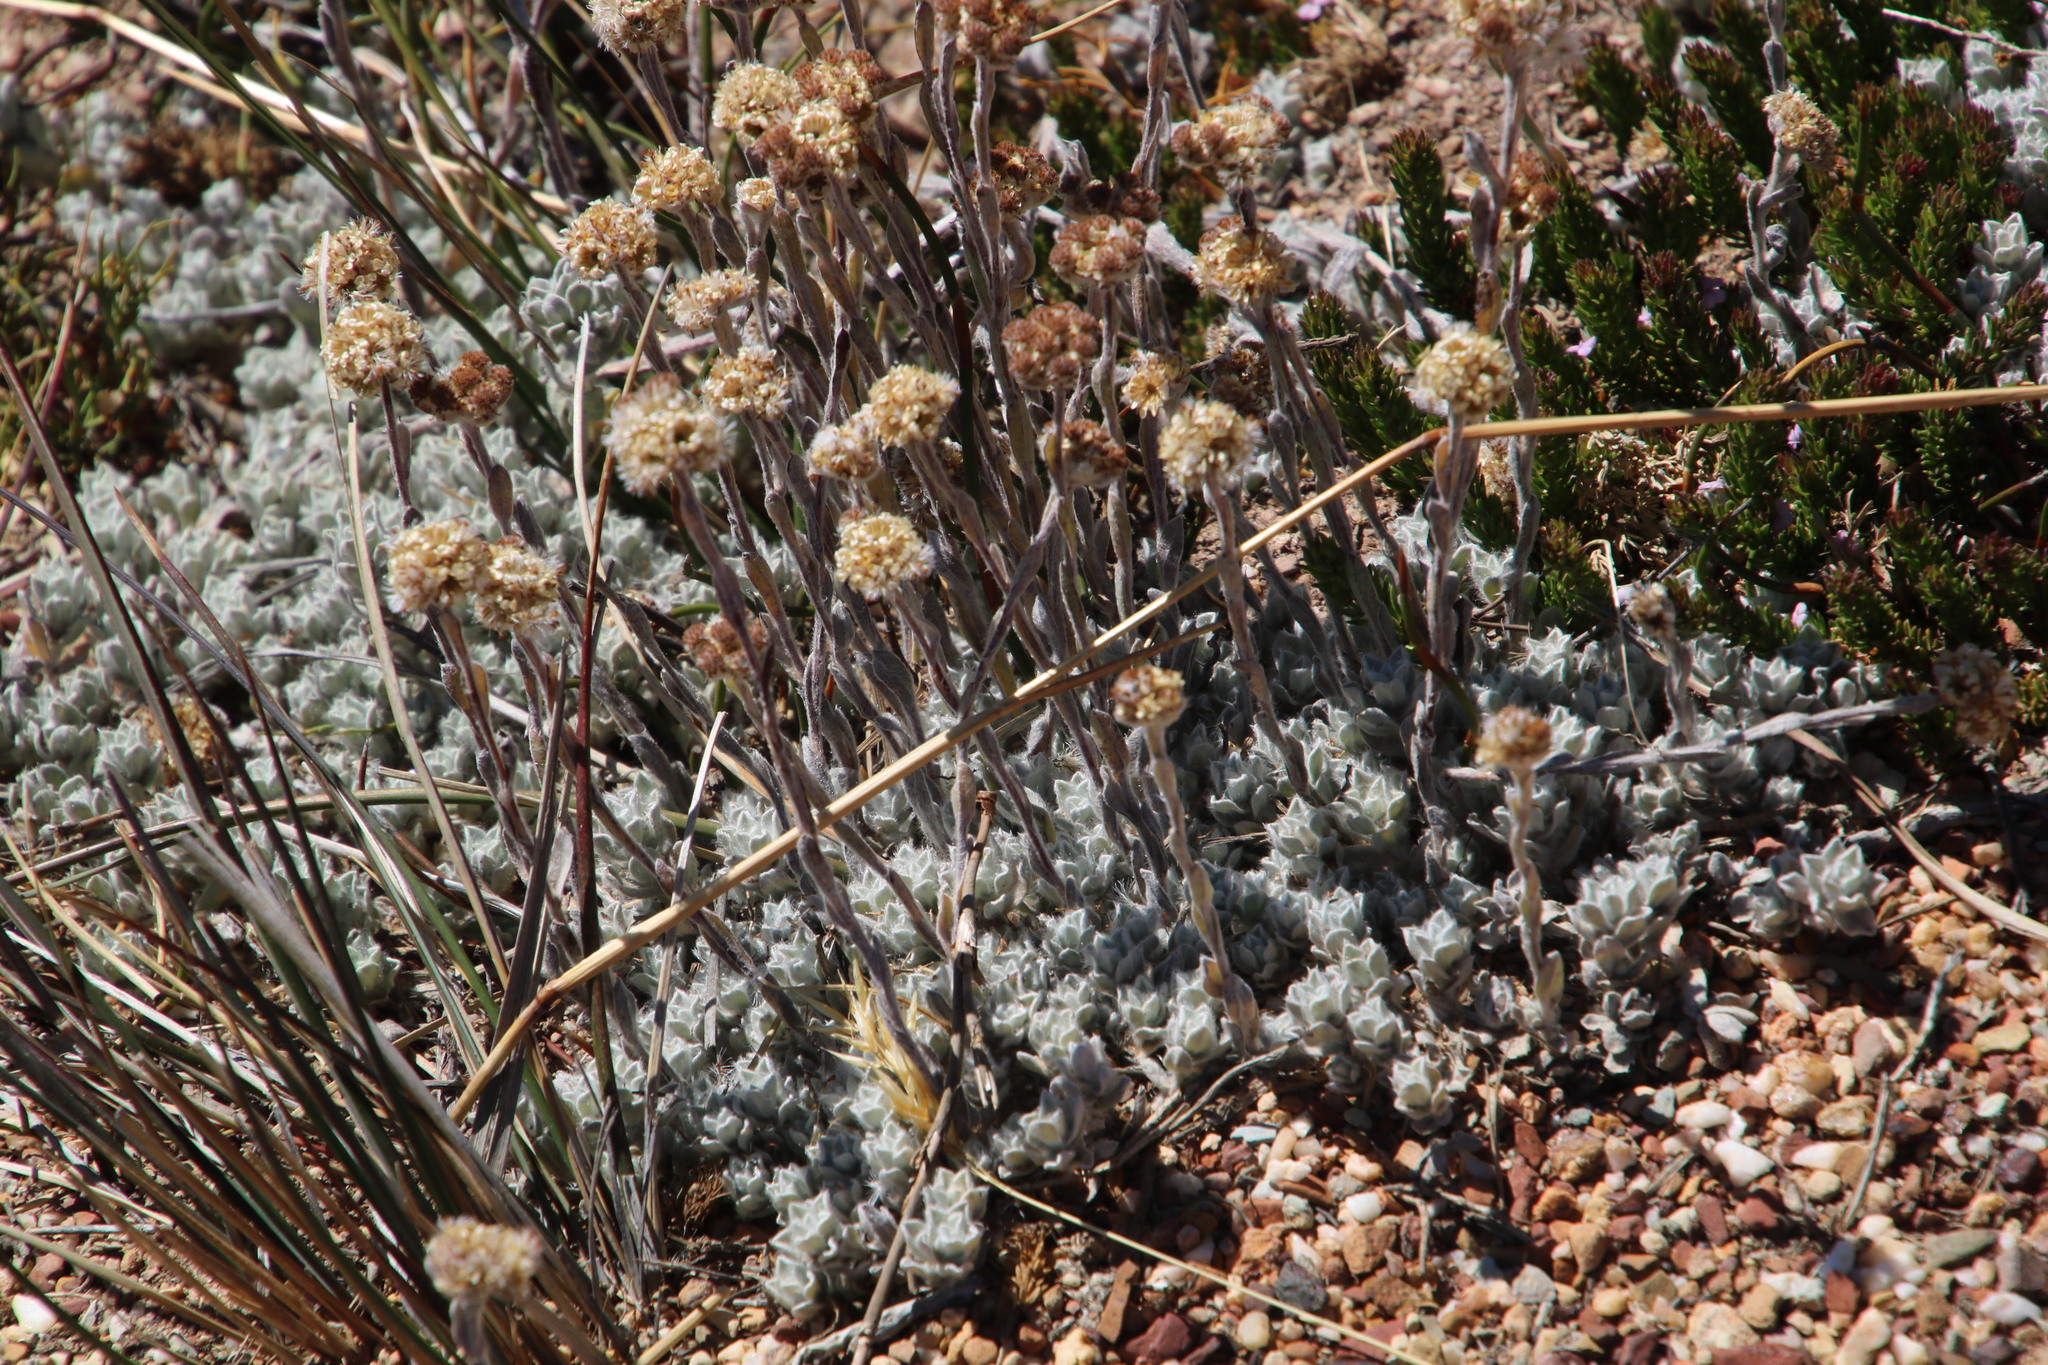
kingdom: Plantae
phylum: Tracheophyta
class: Magnoliopsida
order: Asterales
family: Asteraceae
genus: Helichrysum
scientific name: Helichrysum catipes
